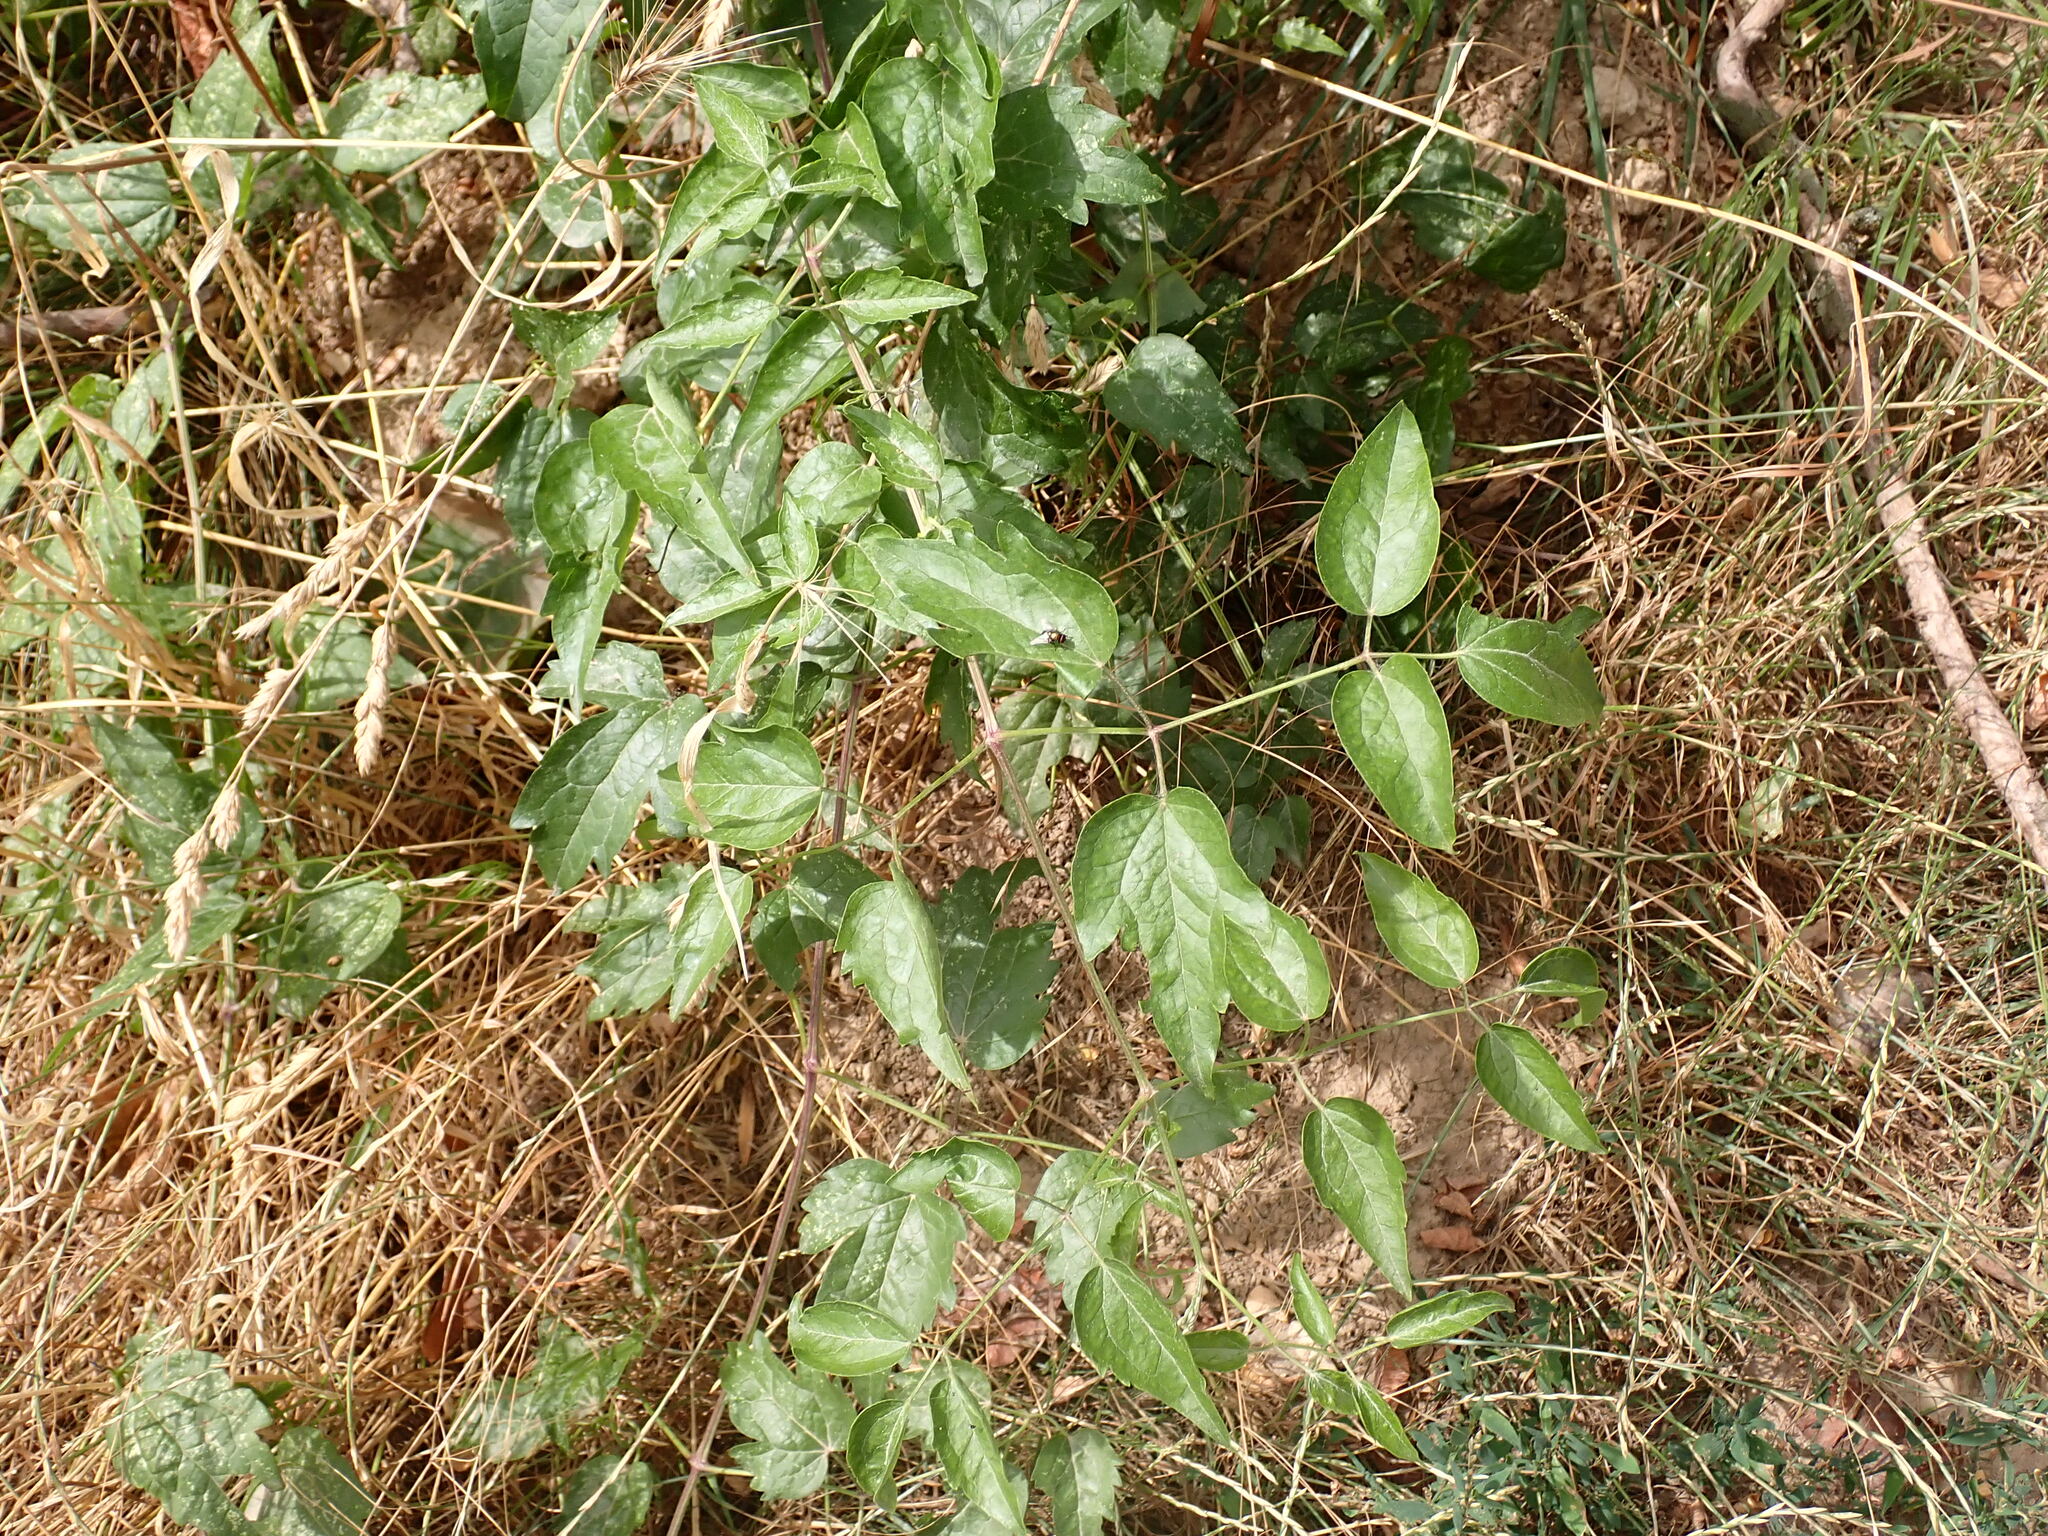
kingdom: Plantae
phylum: Tracheophyta
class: Magnoliopsida
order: Ranunculales
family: Ranunculaceae
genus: Clematis
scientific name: Clematis vitalba
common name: Evergreen clematis
